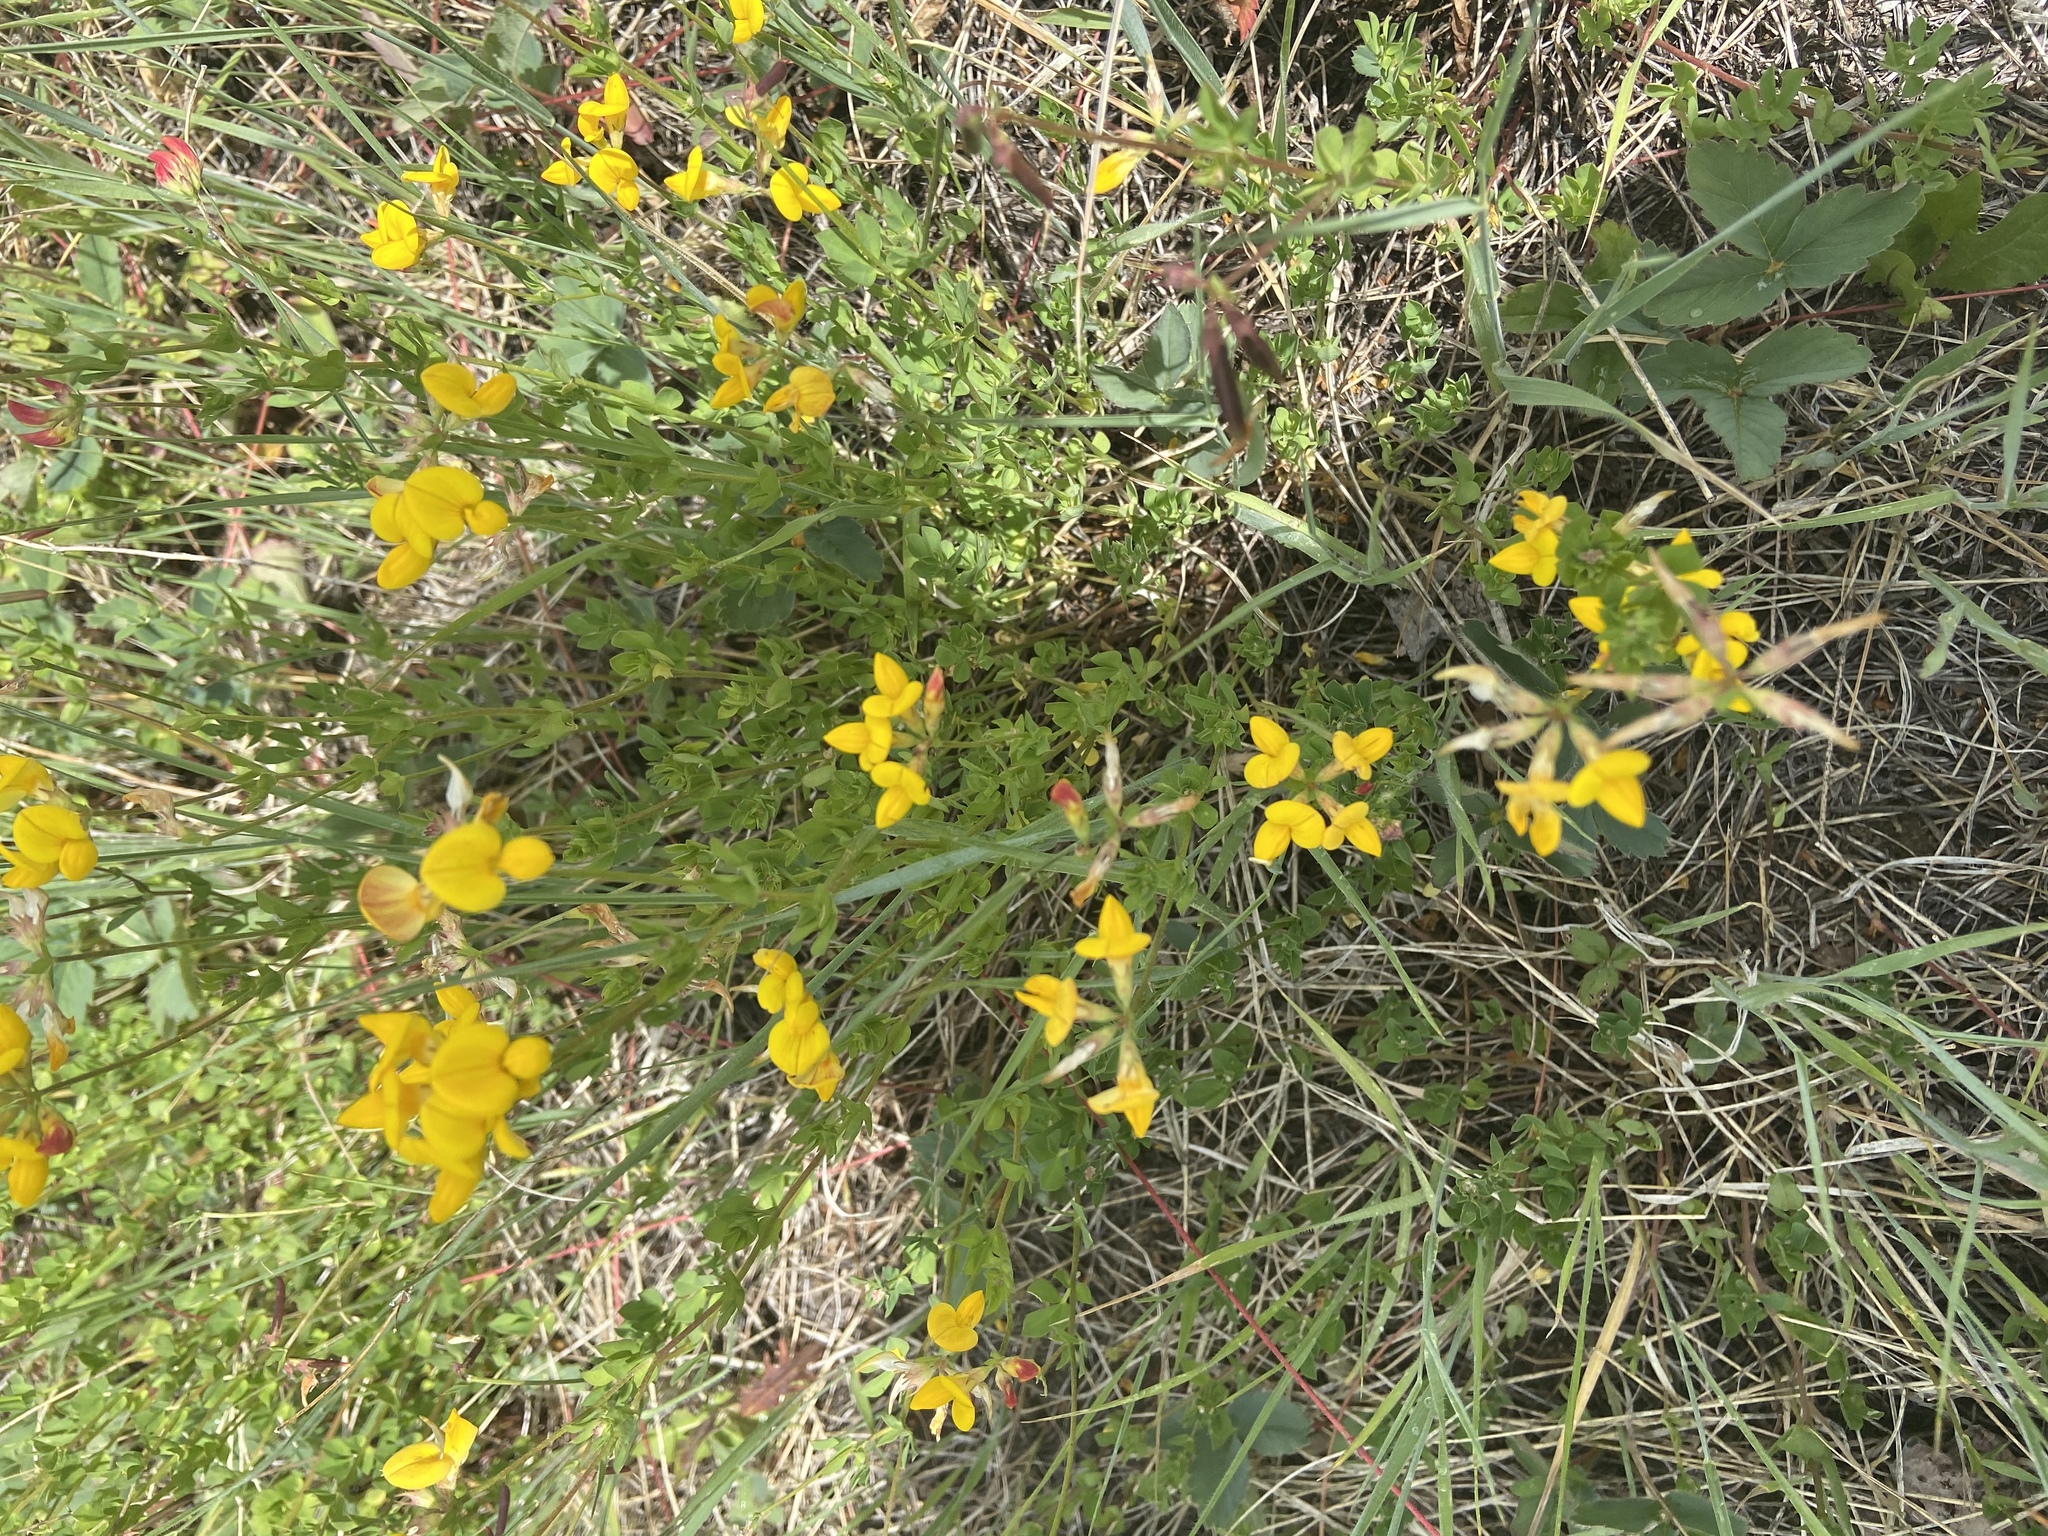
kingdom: Plantae
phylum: Tracheophyta
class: Magnoliopsida
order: Fabales
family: Fabaceae
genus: Lotus
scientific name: Lotus corniculatus
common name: Common bird's-foot-trefoil
